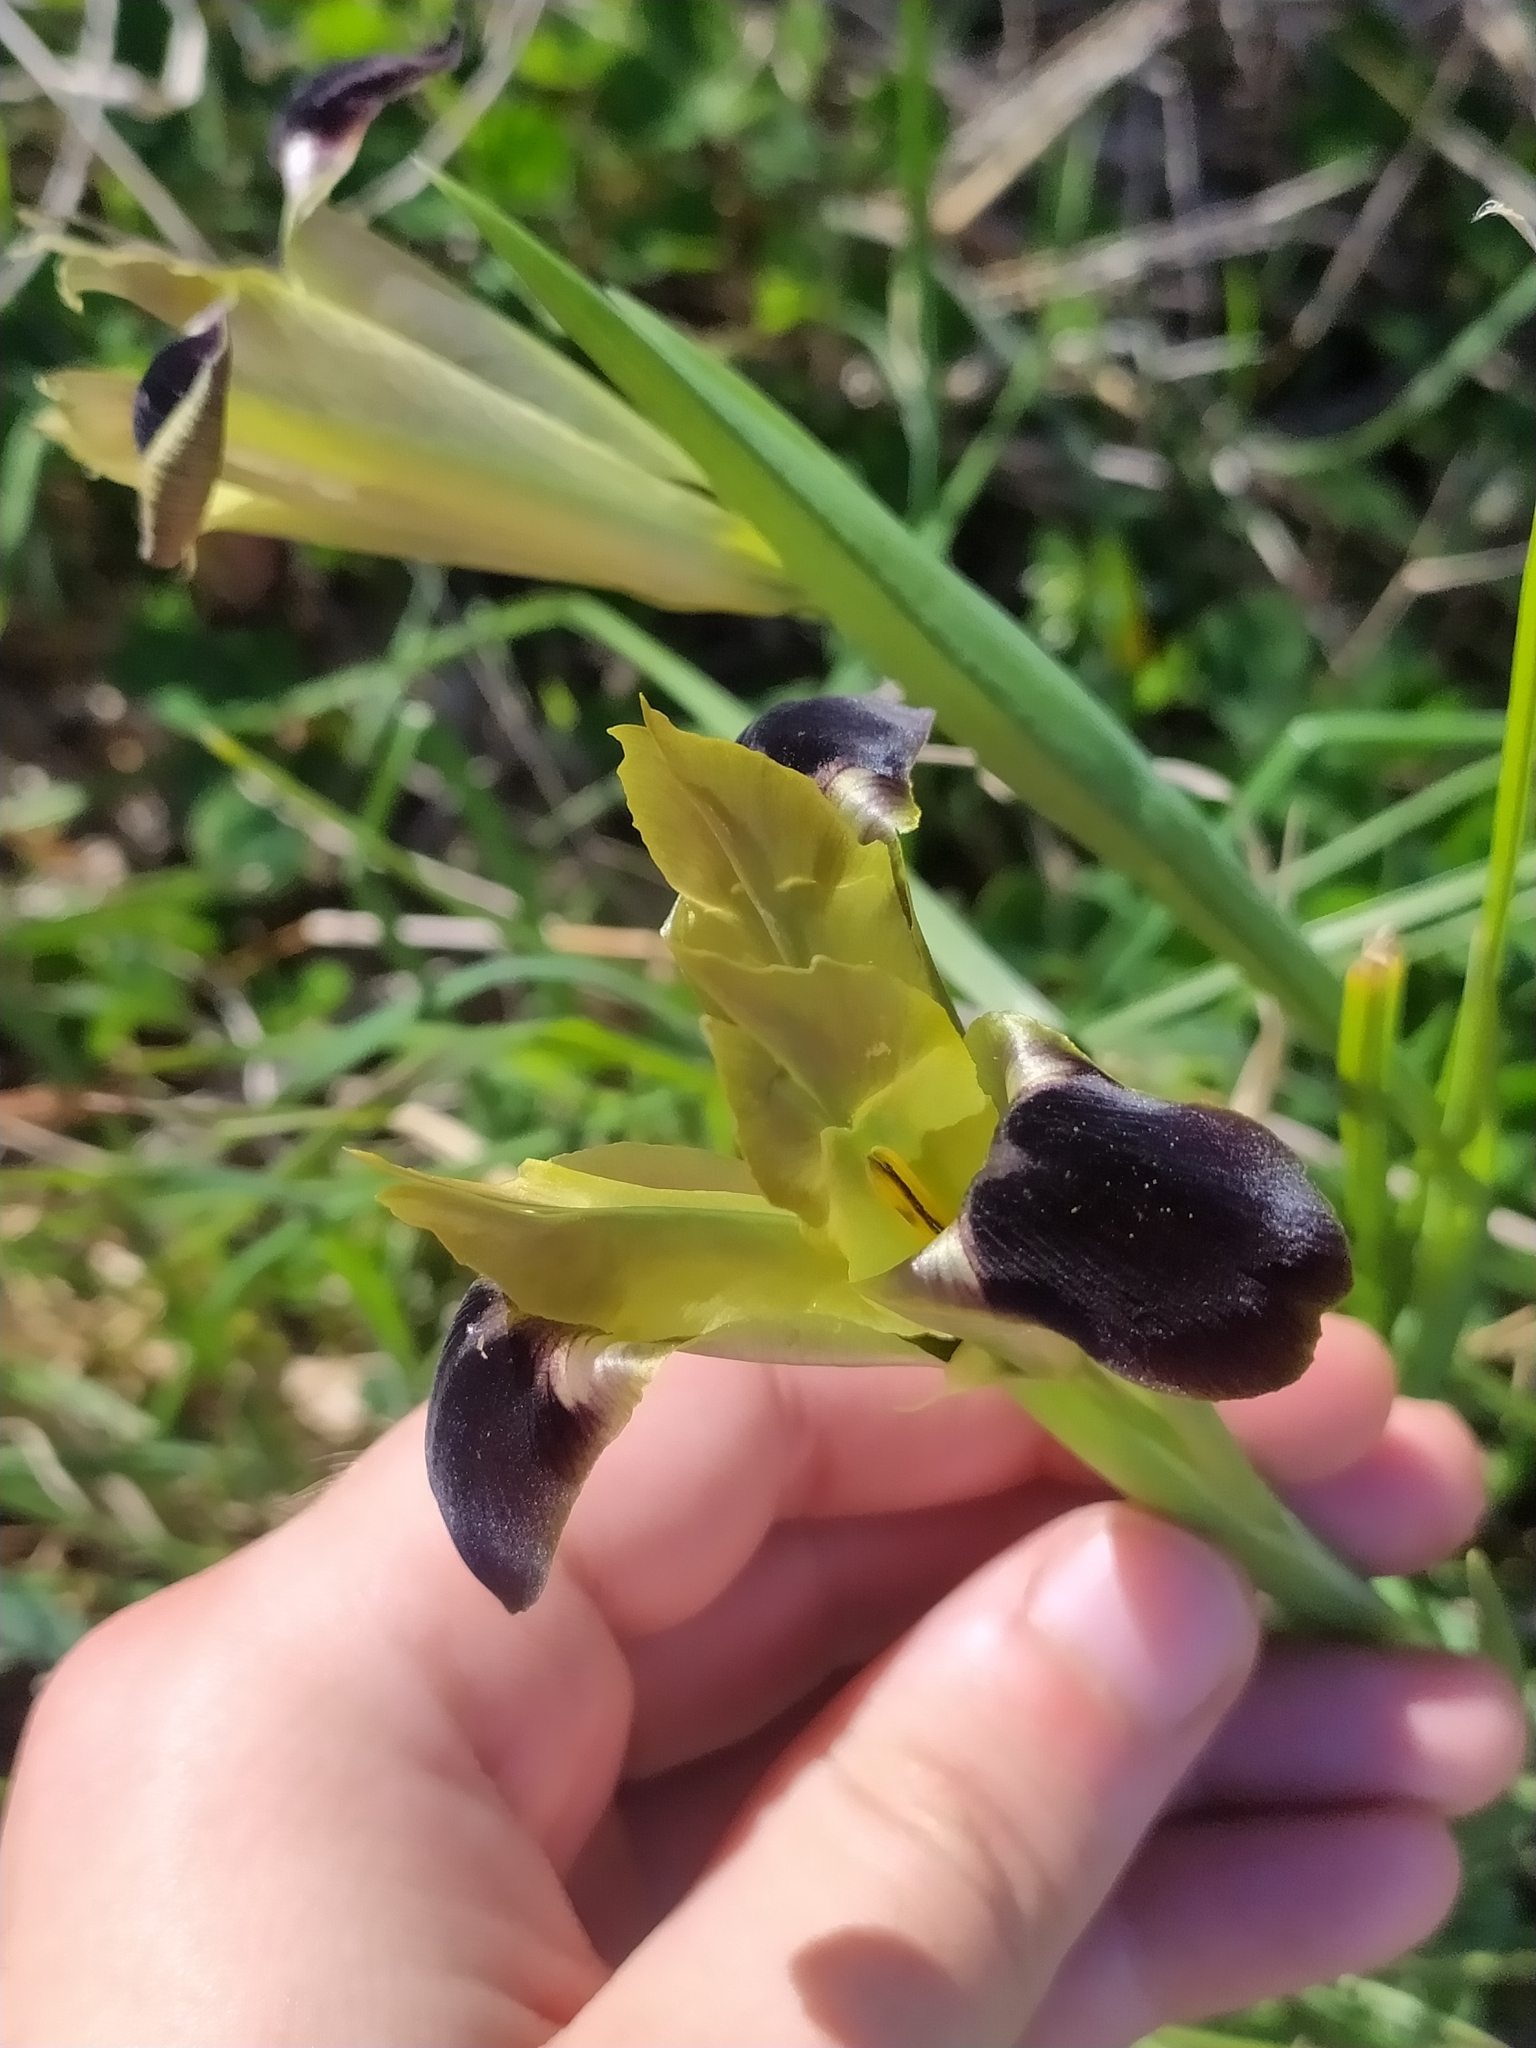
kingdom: Plantae
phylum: Tracheophyta
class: Liliopsida
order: Asparagales
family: Iridaceae
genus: Iris
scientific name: Iris tuberosa
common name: Snake's-head iris
